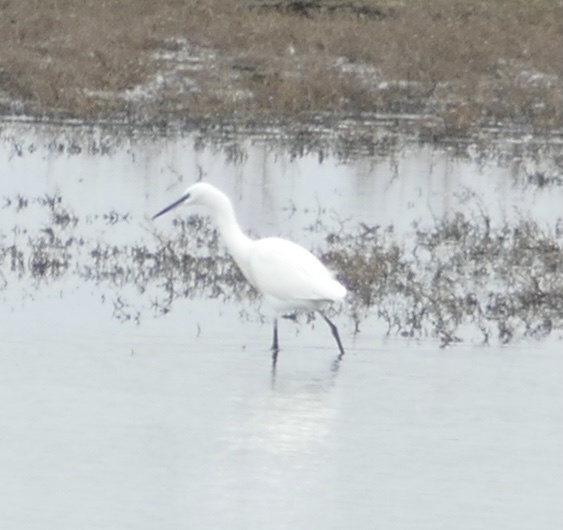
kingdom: Animalia
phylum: Chordata
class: Aves
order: Pelecaniformes
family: Ardeidae
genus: Egretta
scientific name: Egretta garzetta
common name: Little egret
